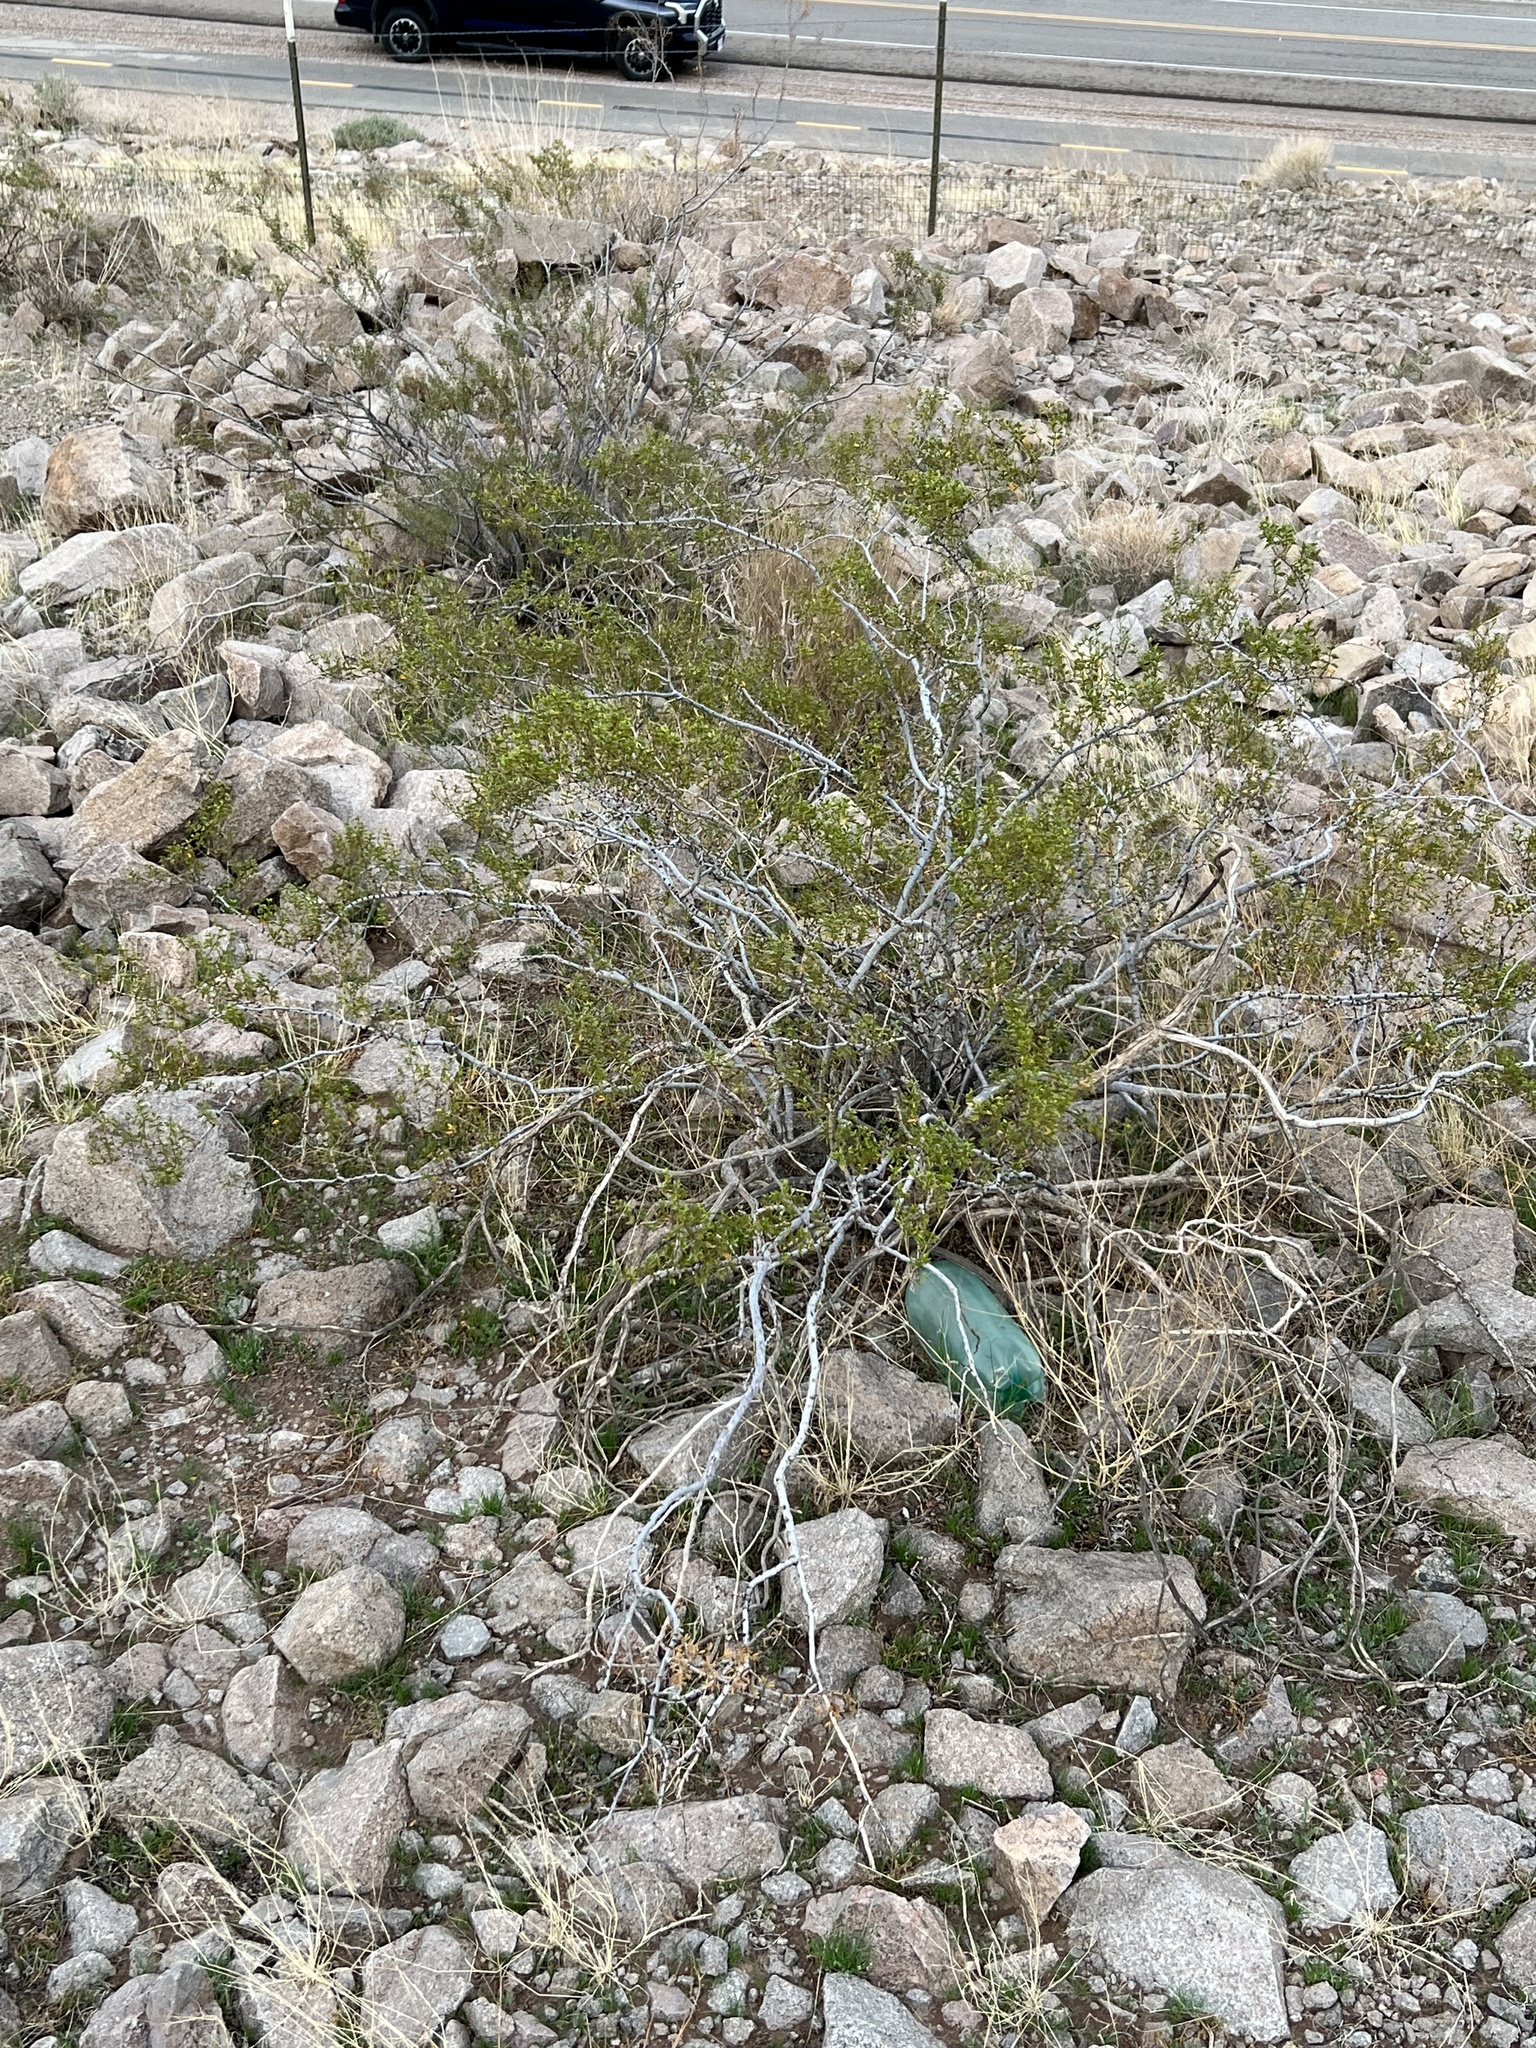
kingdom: Plantae
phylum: Tracheophyta
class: Magnoliopsida
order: Zygophyllales
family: Zygophyllaceae
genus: Larrea
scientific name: Larrea tridentata
